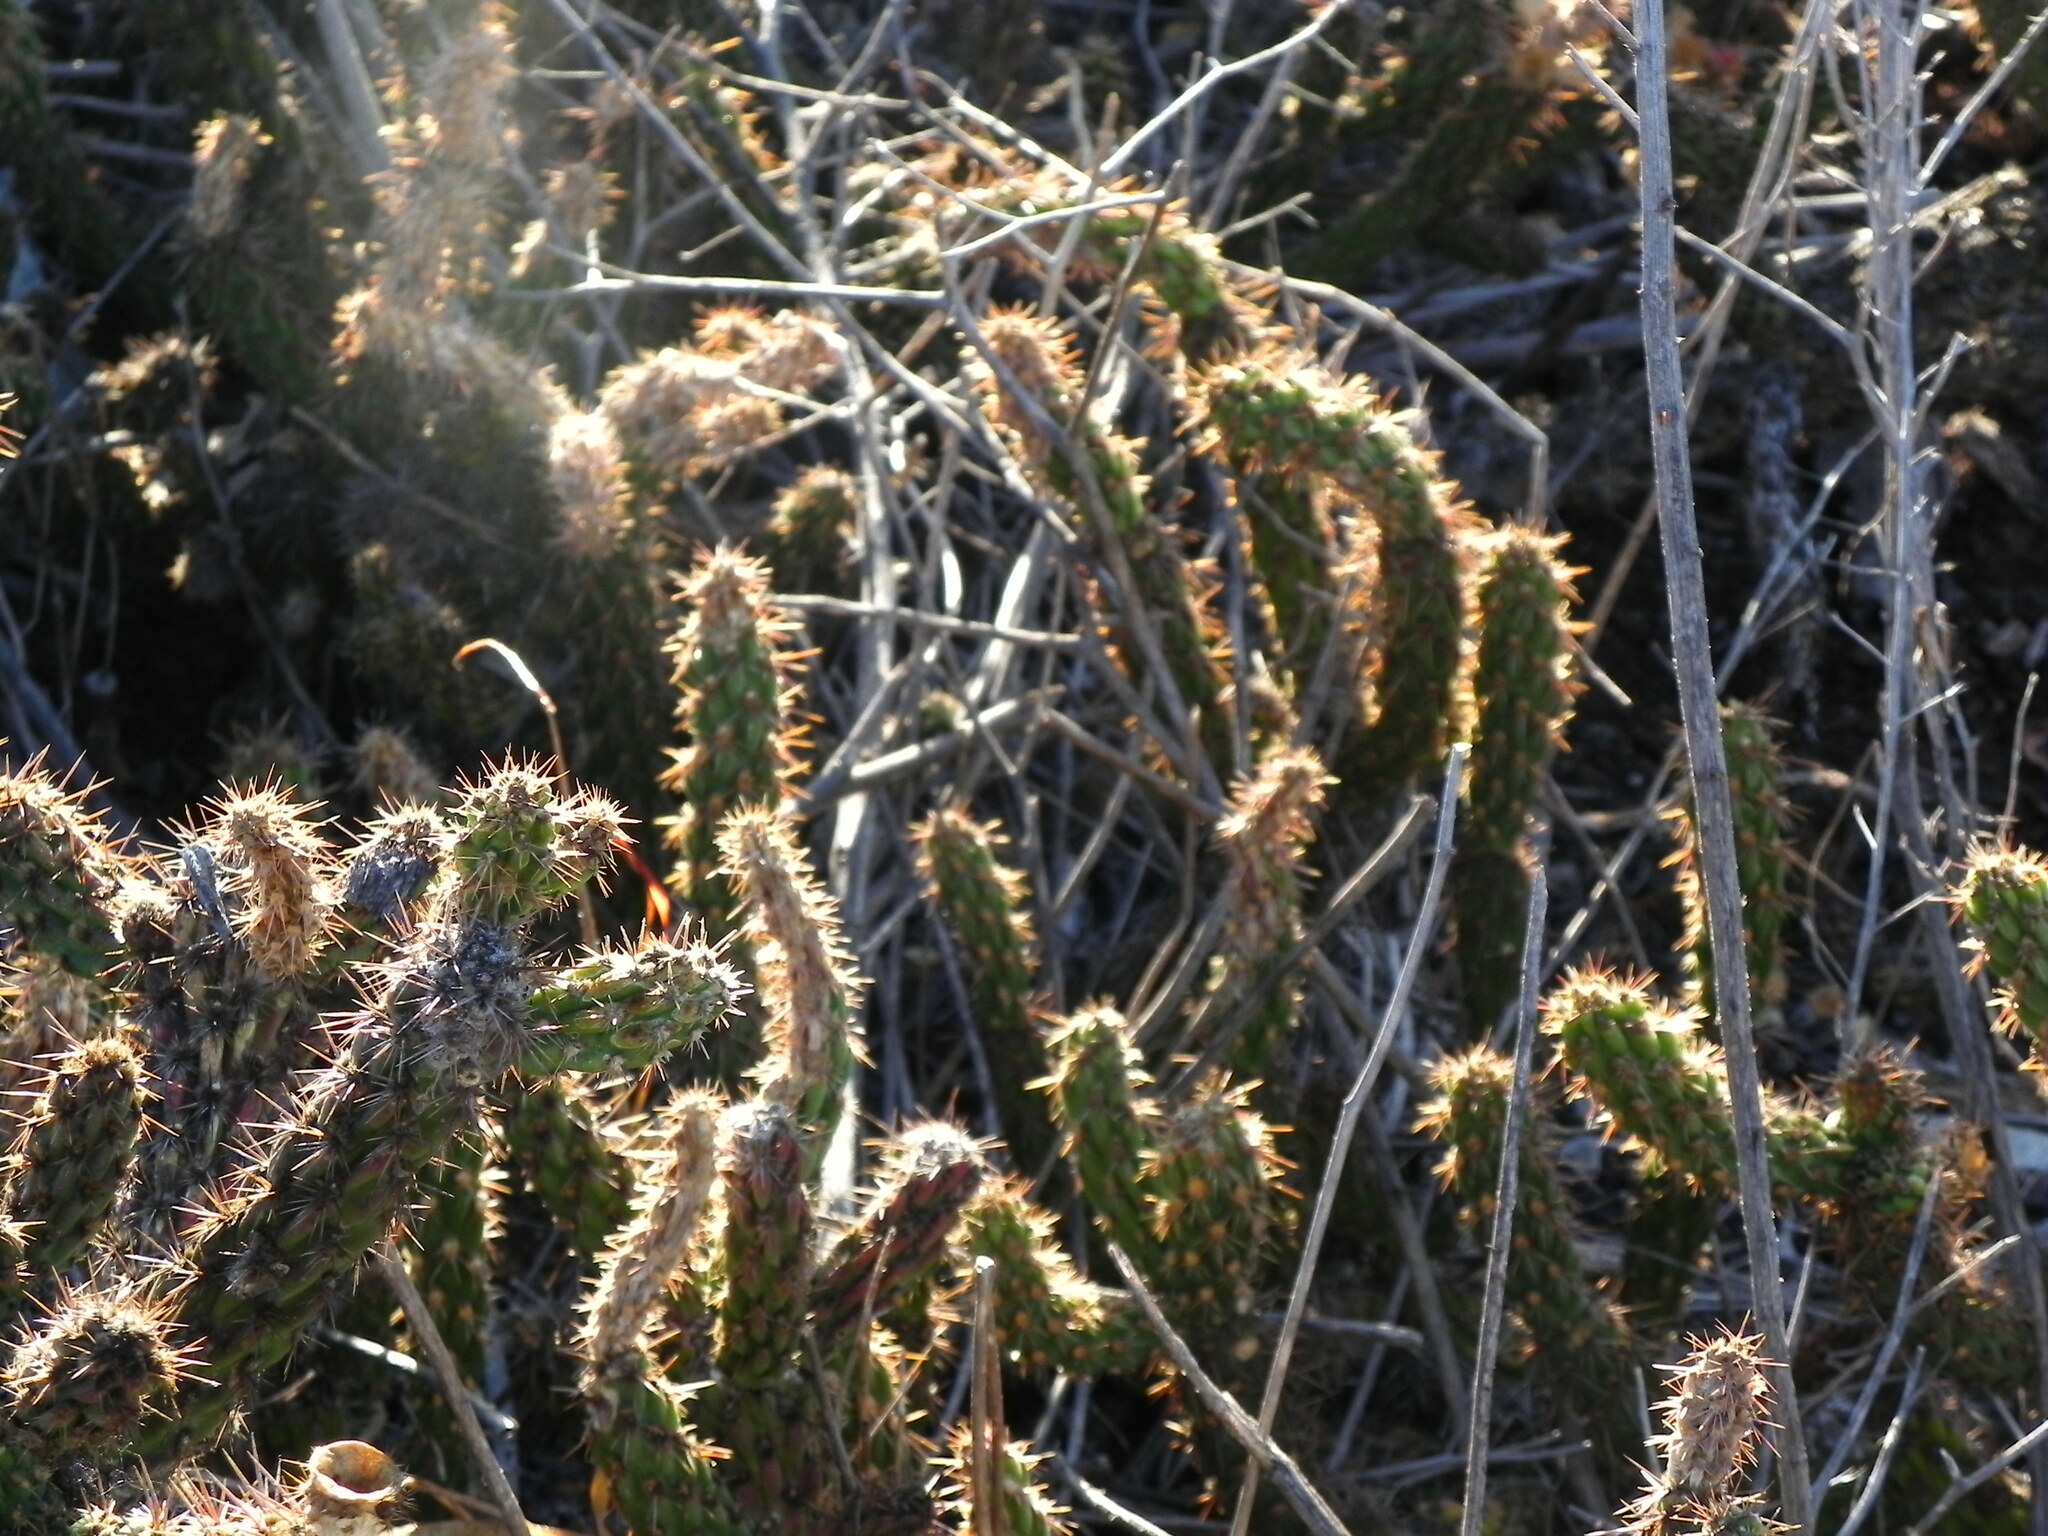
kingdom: Plantae
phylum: Tracheophyta
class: Magnoliopsida
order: Caryophyllales
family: Cactaceae
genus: Cylindropuntia
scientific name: Cylindropuntia californica
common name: Snake cholla
